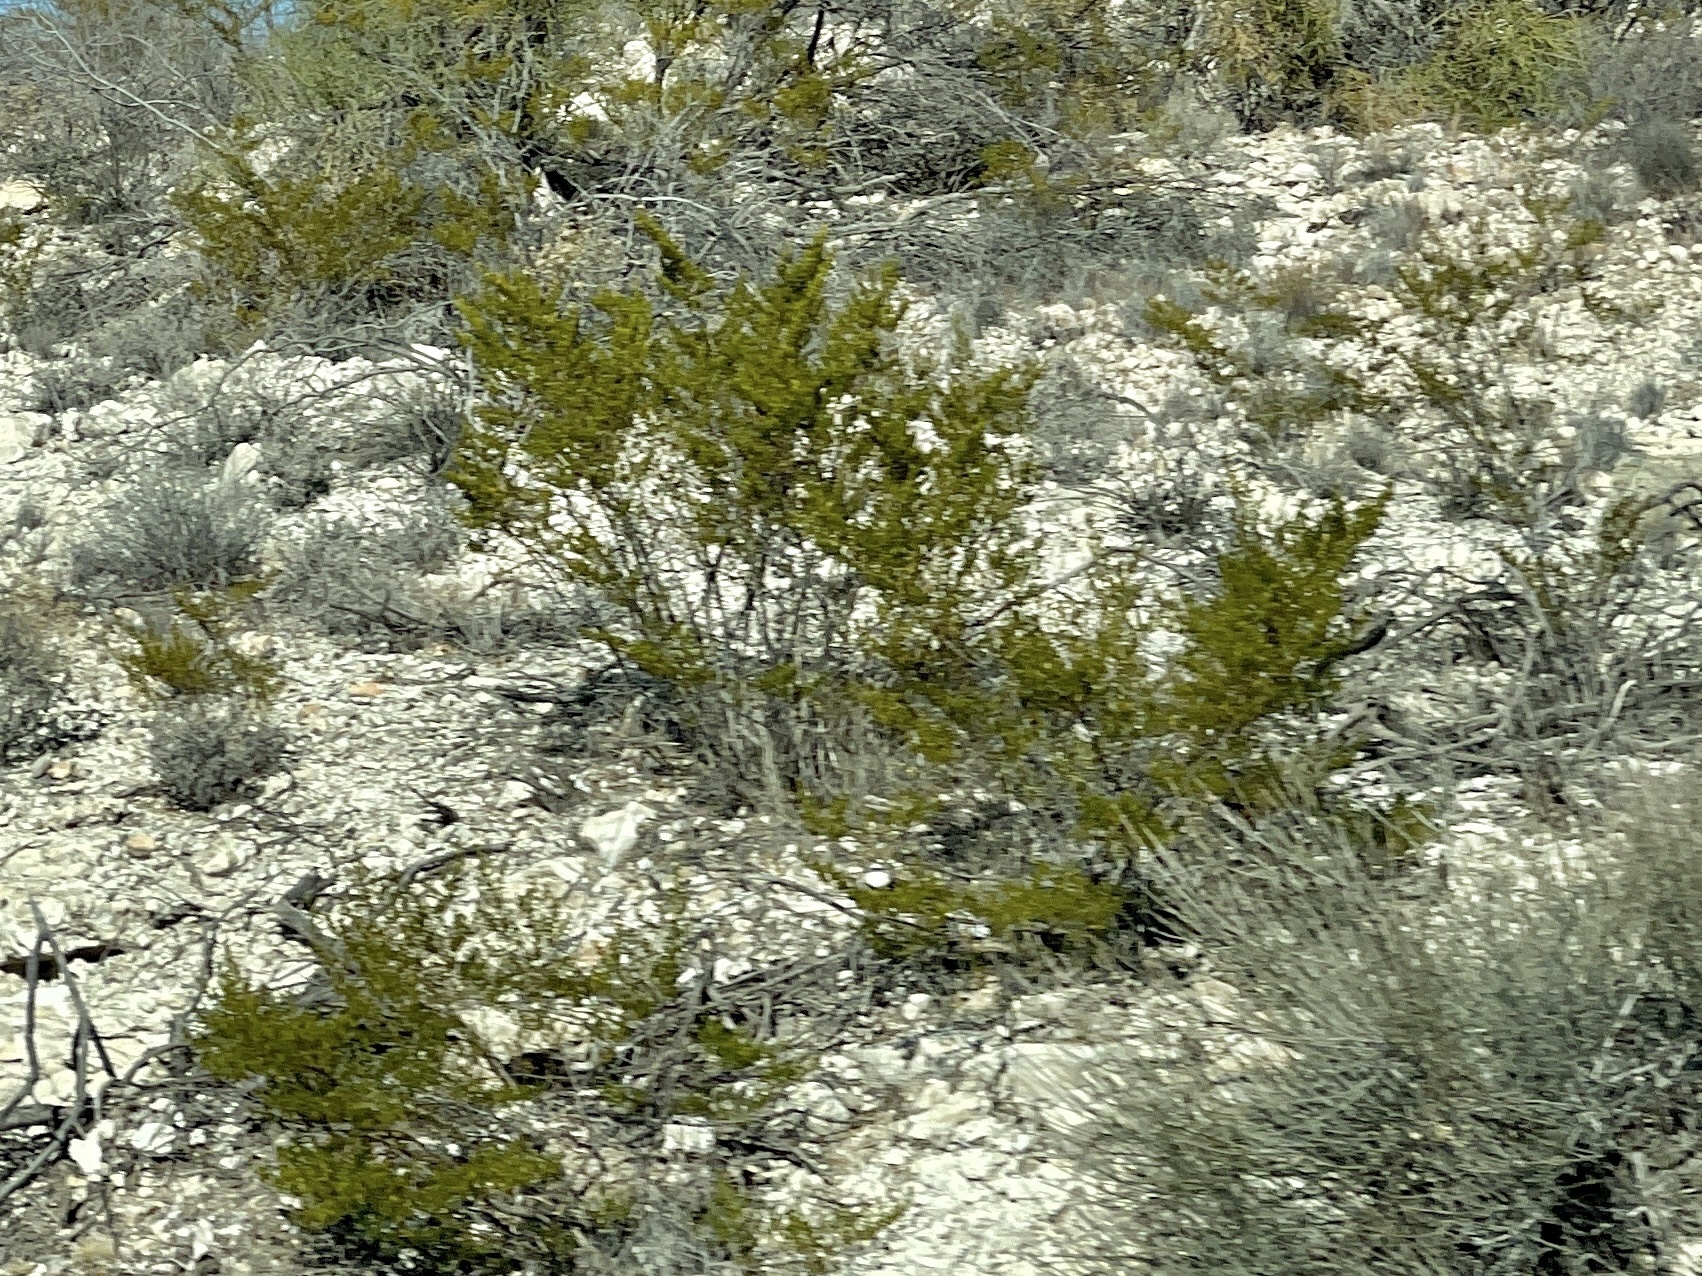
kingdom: Plantae
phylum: Tracheophyta
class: Magnoliopsida
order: Zygophyllales
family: Zygophyllaceae
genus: Larrea
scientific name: Larrea tridentata
